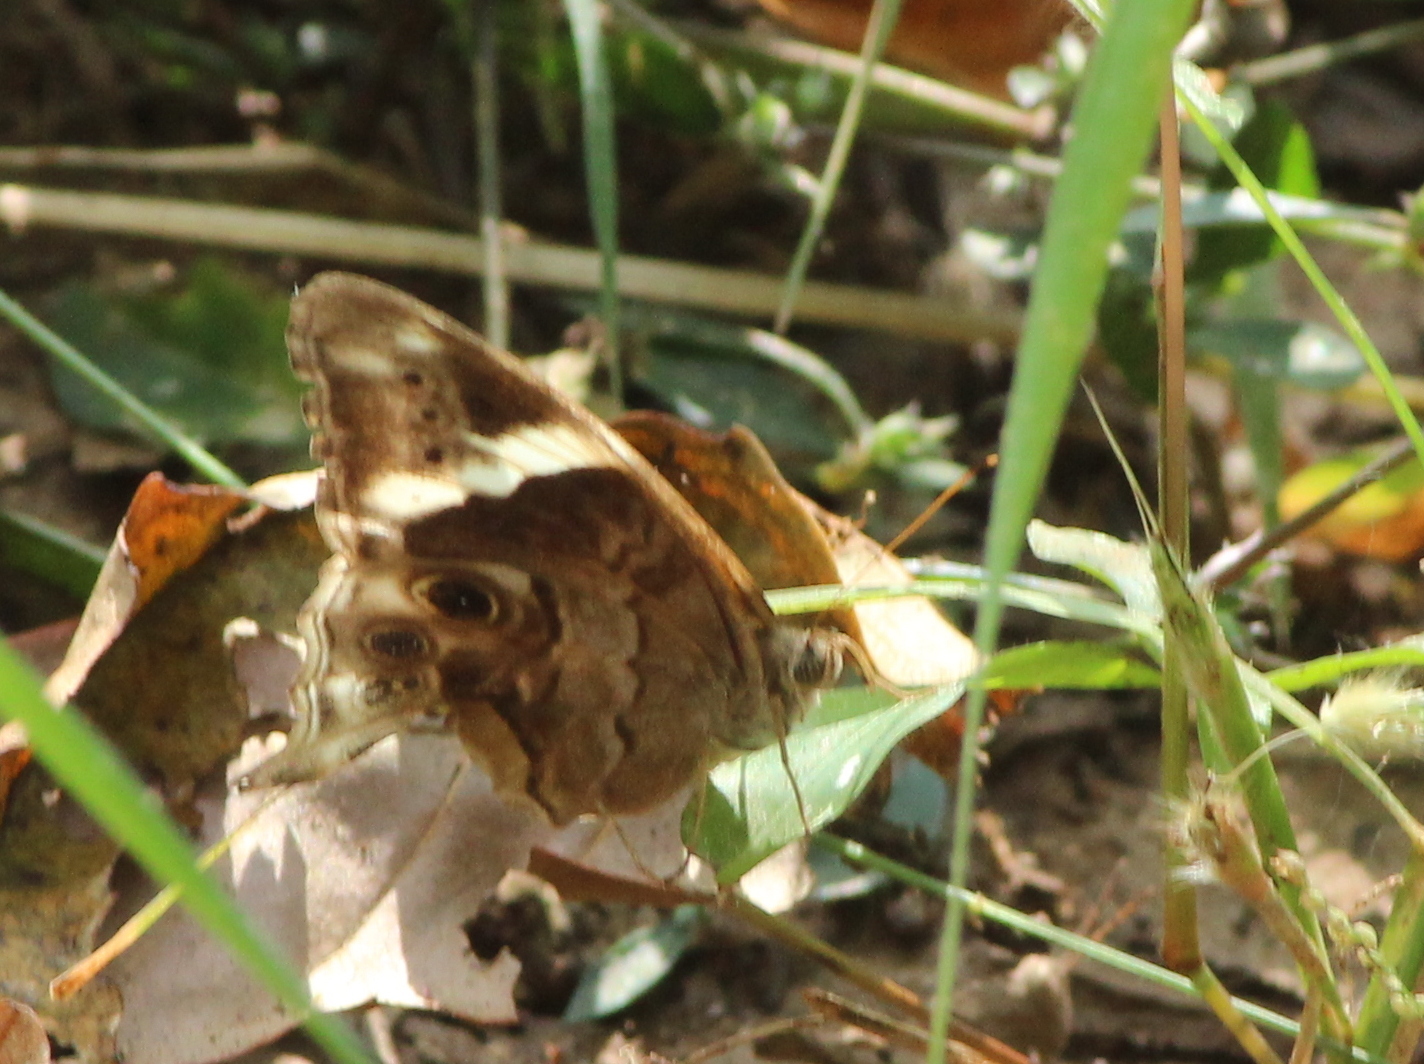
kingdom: Animalia
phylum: Arthropoda
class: Insecta
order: Lepidoptera
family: Nymphalidae
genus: Lethe
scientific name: Lethe drypetis
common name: Tamil treebrown
